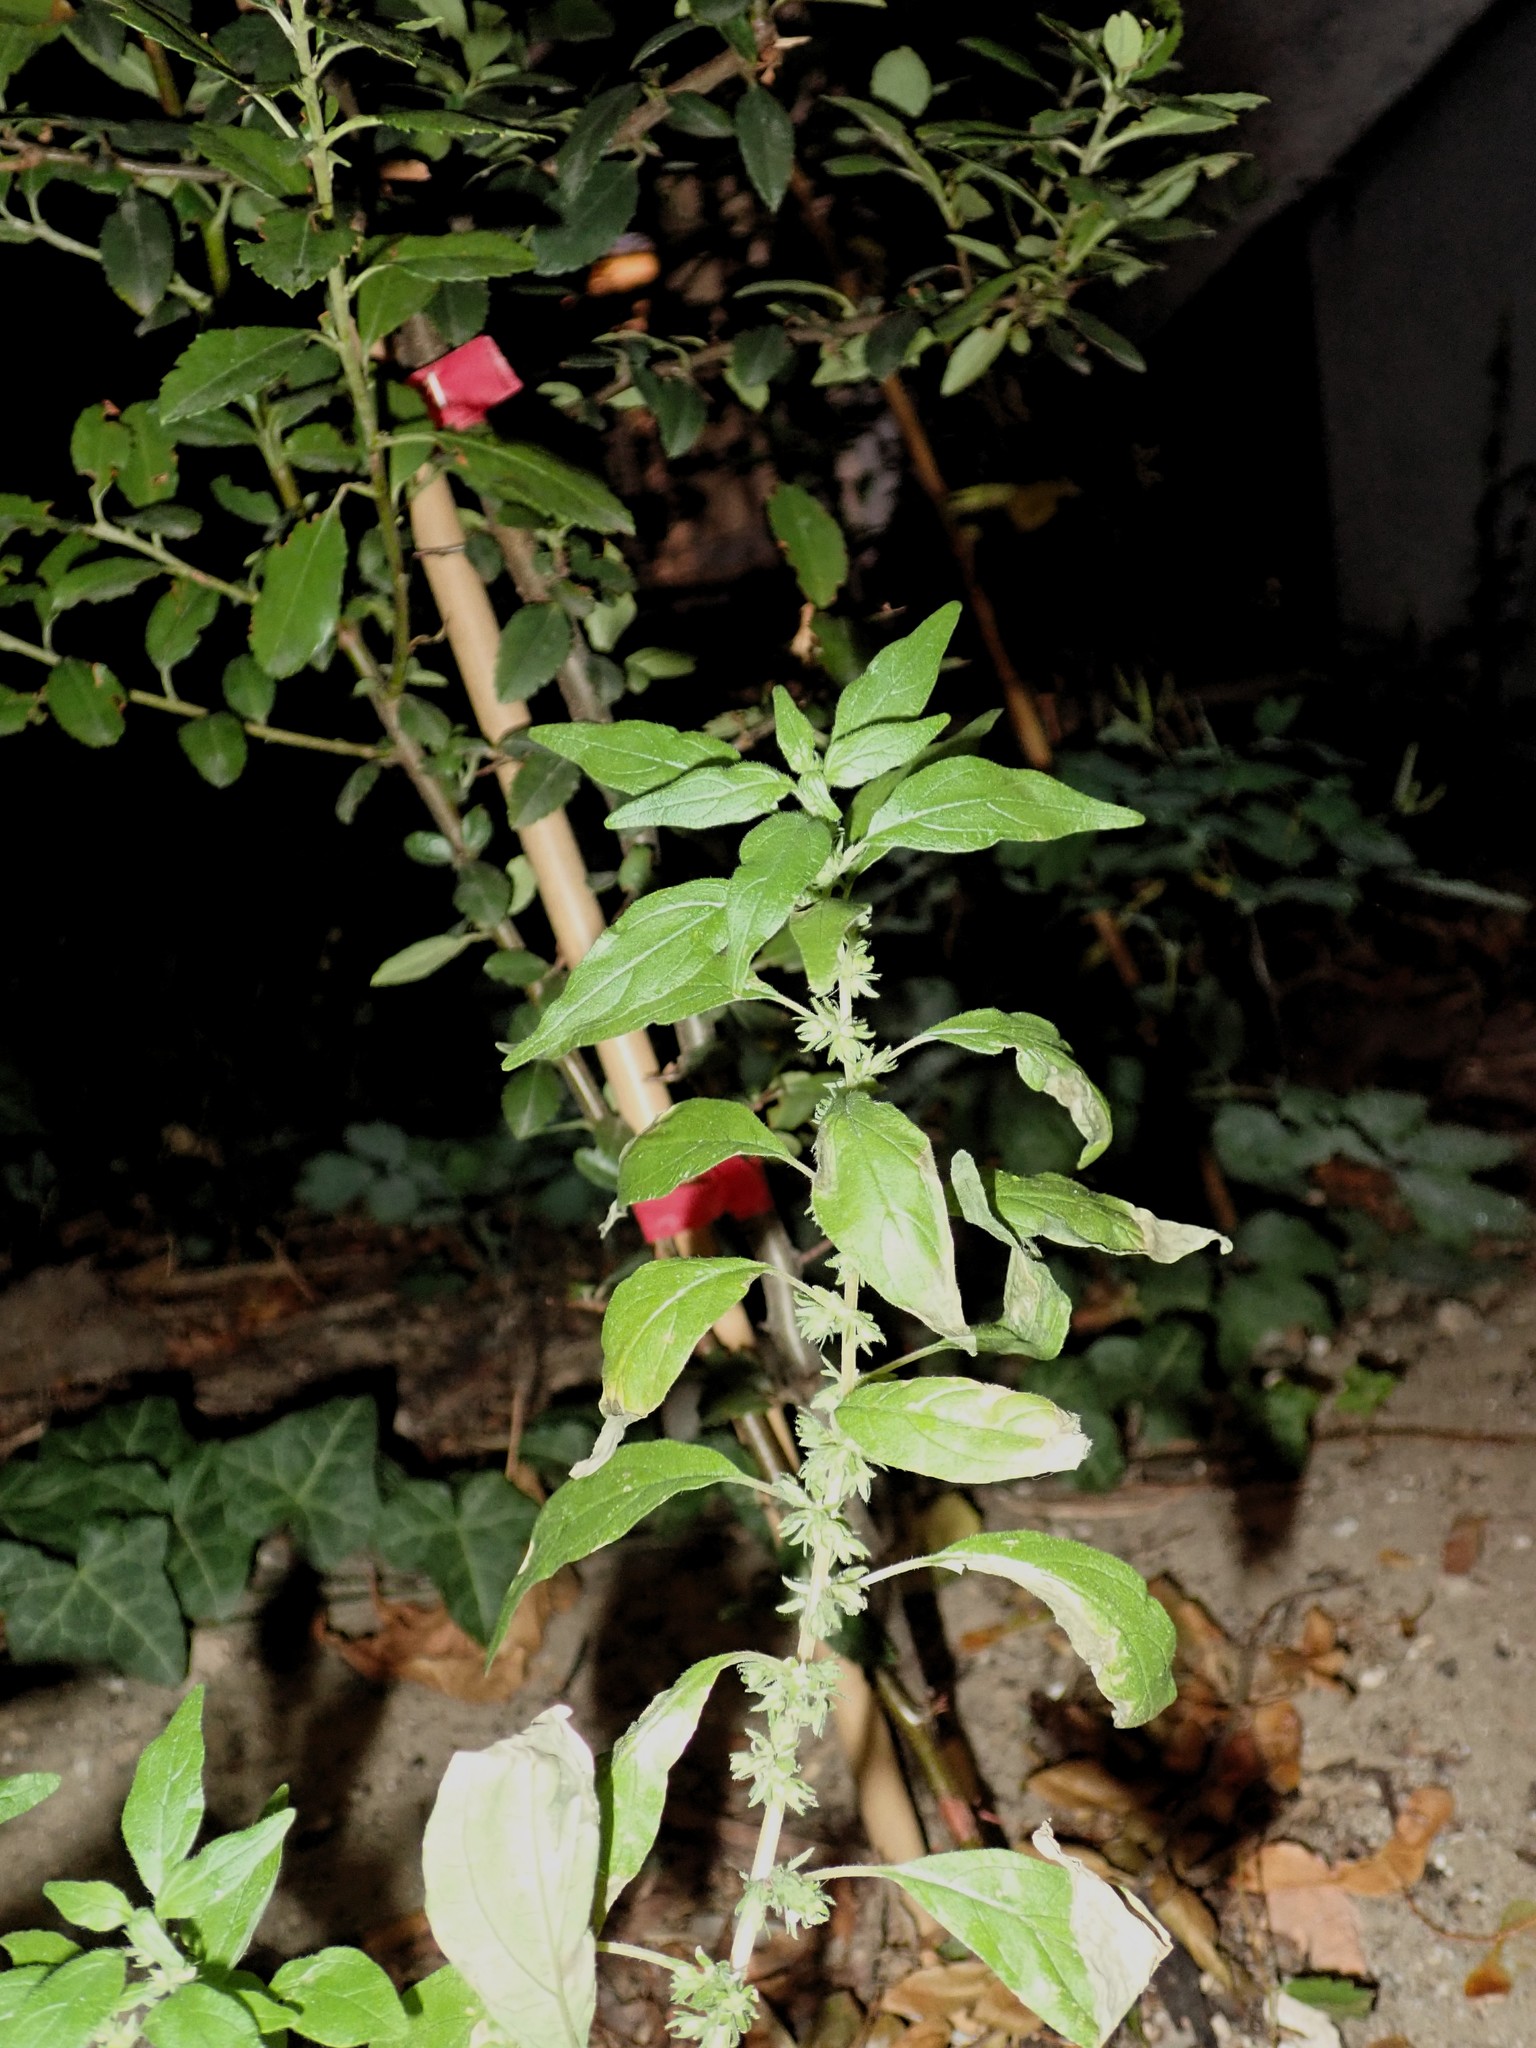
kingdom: Plantae
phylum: Tracheophyta
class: Magnoliopsida
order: Rosales
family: Urticaceae
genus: Parietaria
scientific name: Parietaria pensylvanica
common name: Pennsylvania pellitory
